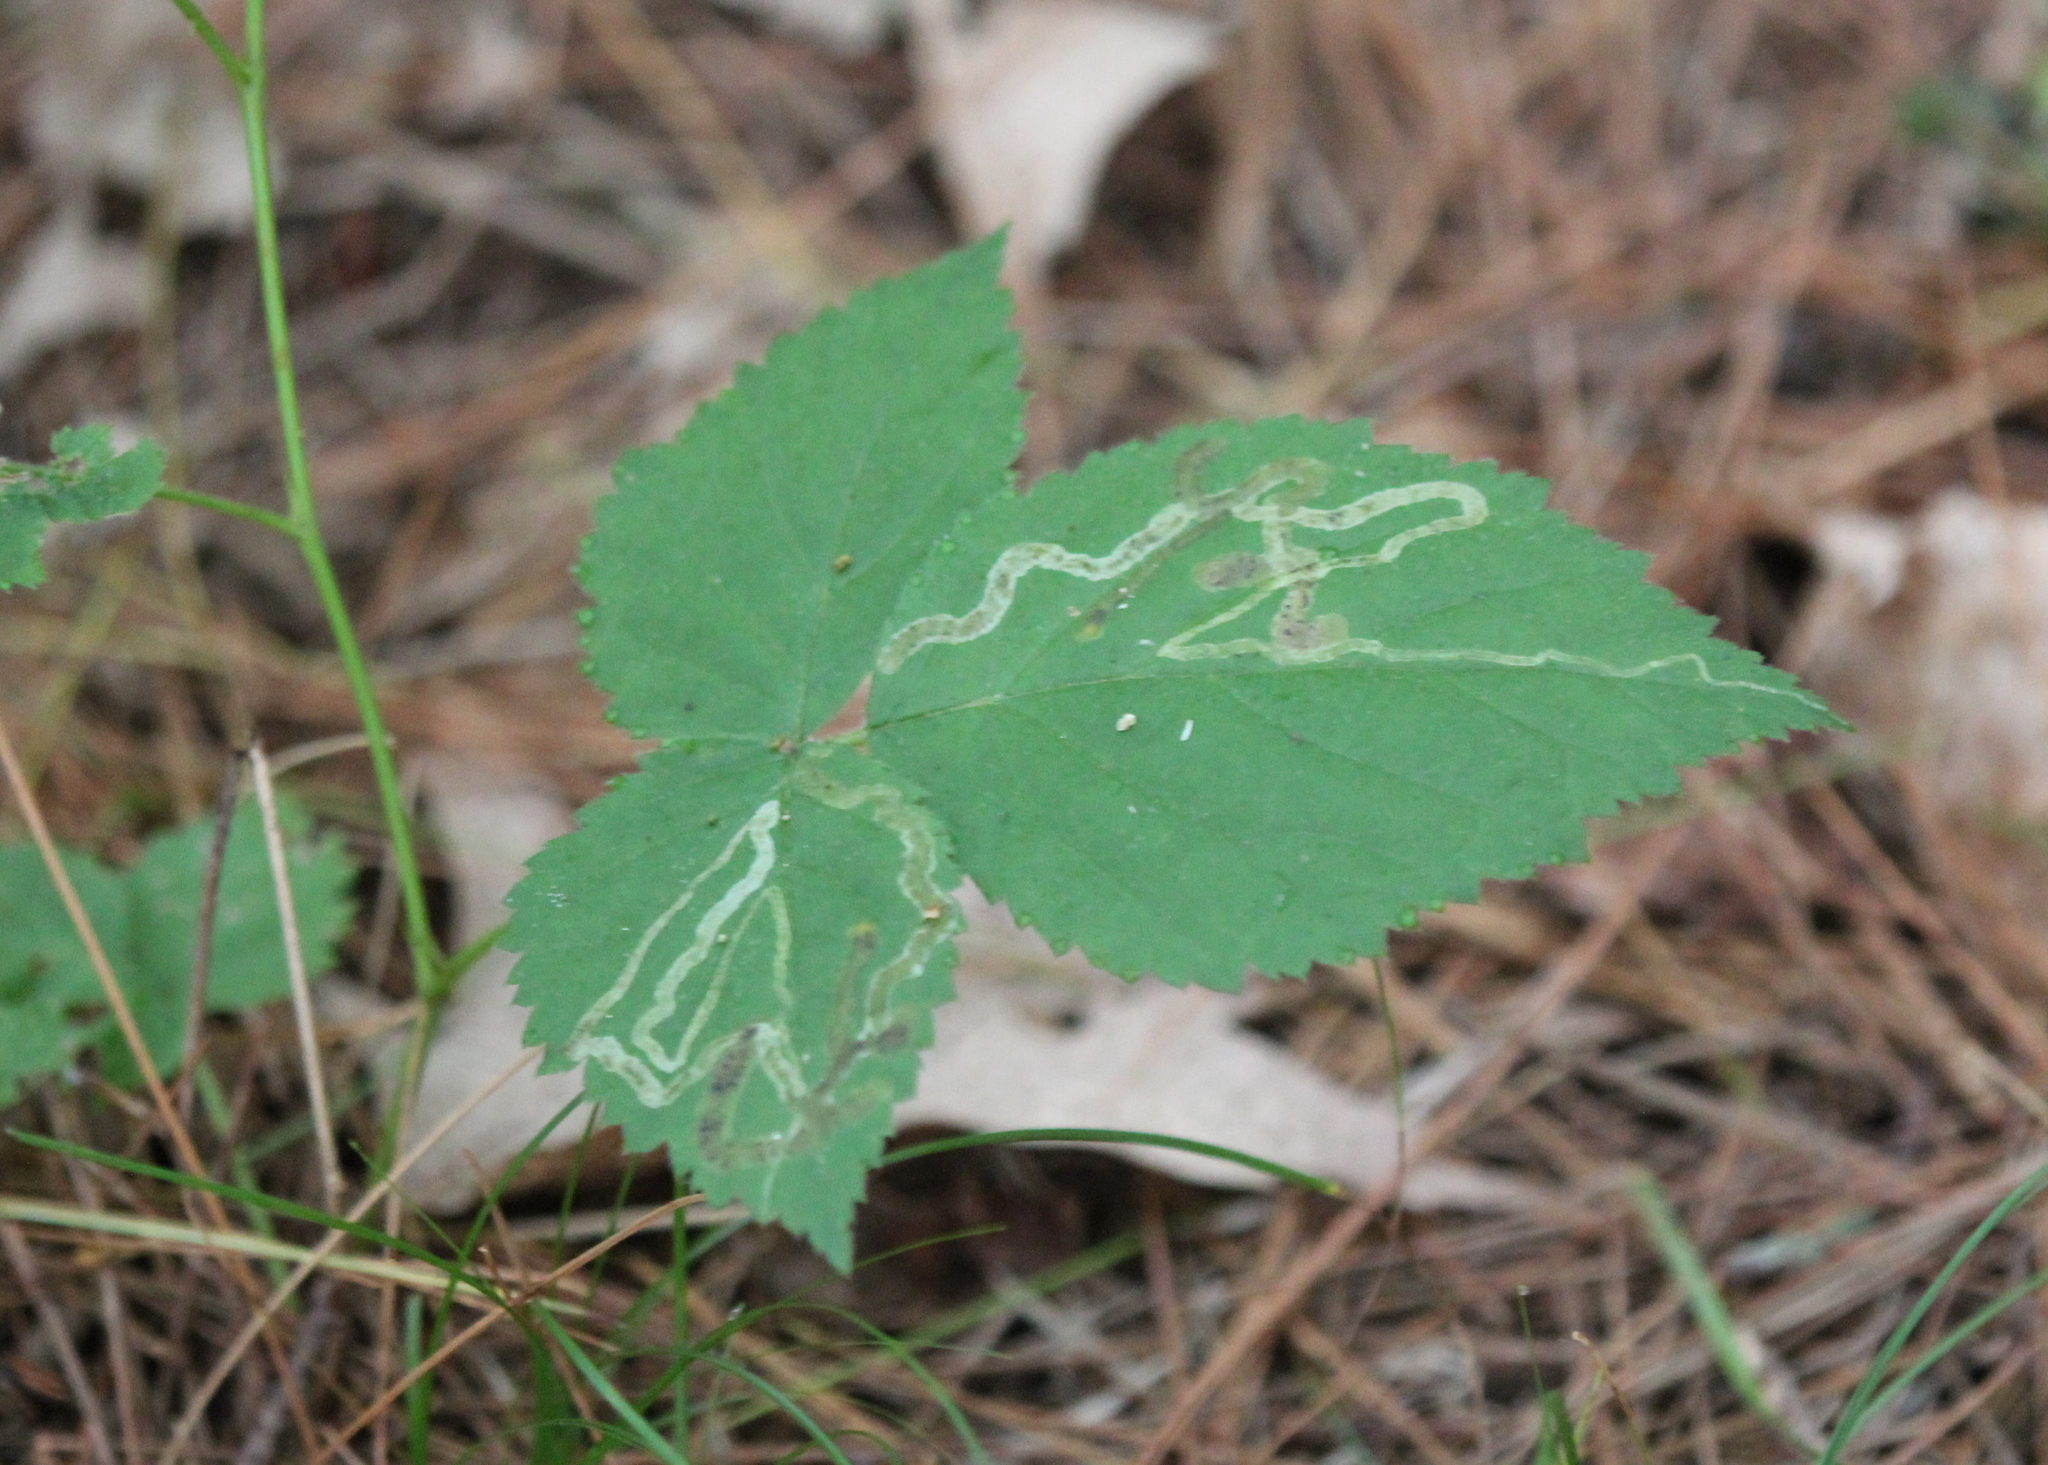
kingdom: Animalia
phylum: Arthropoda
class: Insecta
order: Diptera
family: Agromyzidae
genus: Agromyza
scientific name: Agromyza vockerothi
